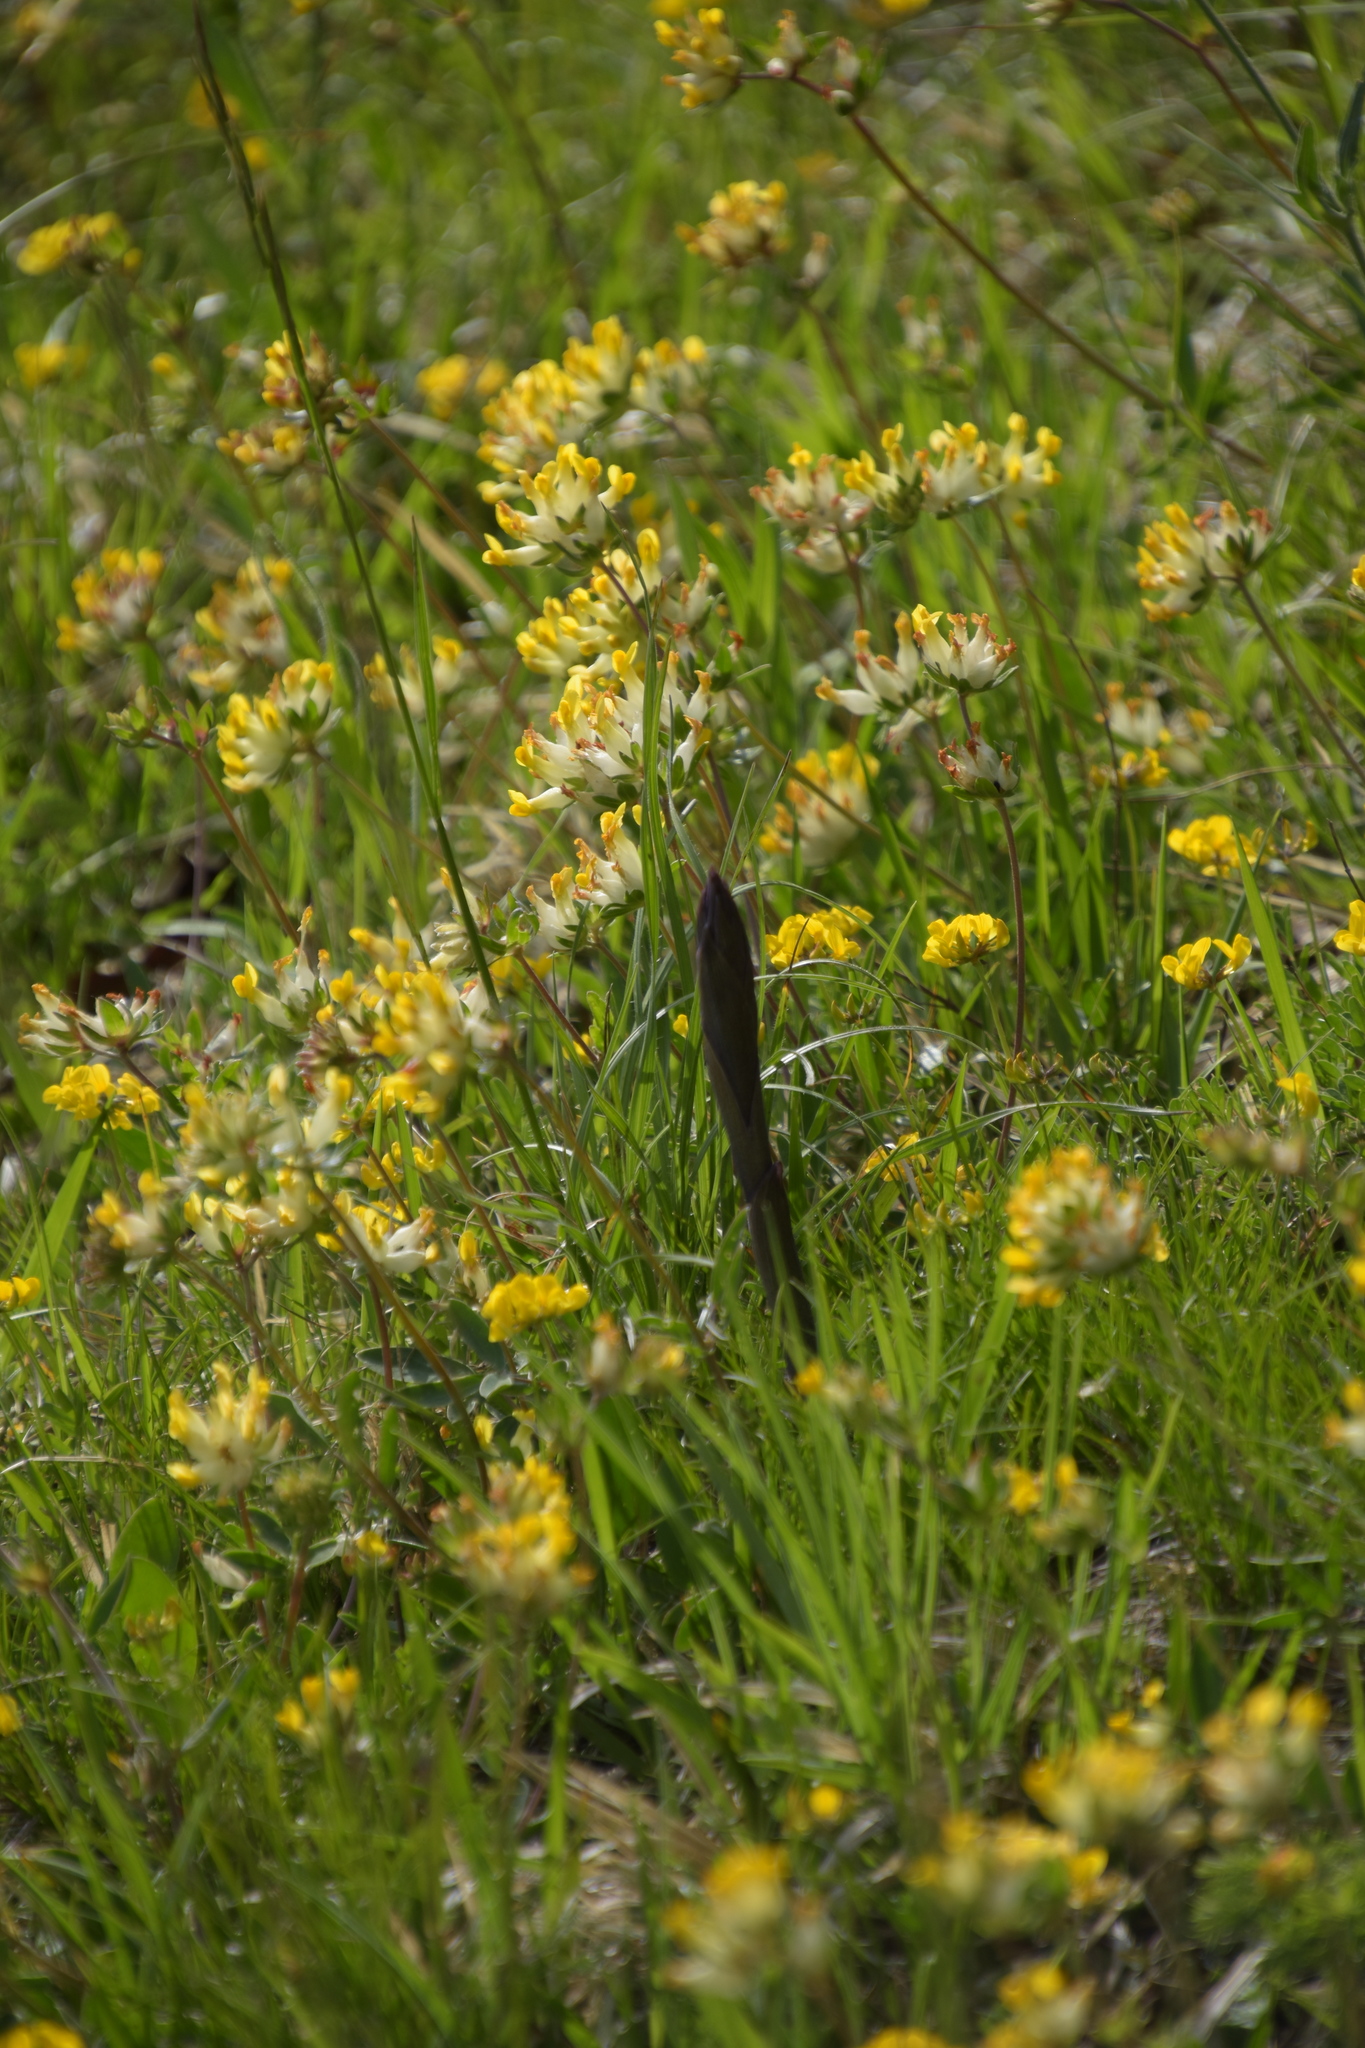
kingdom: Plantae
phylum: Tracheophyta
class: Liliopsida
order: Asparagales
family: Orchidaceae
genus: Limodorum
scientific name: Limodorum abortivum
